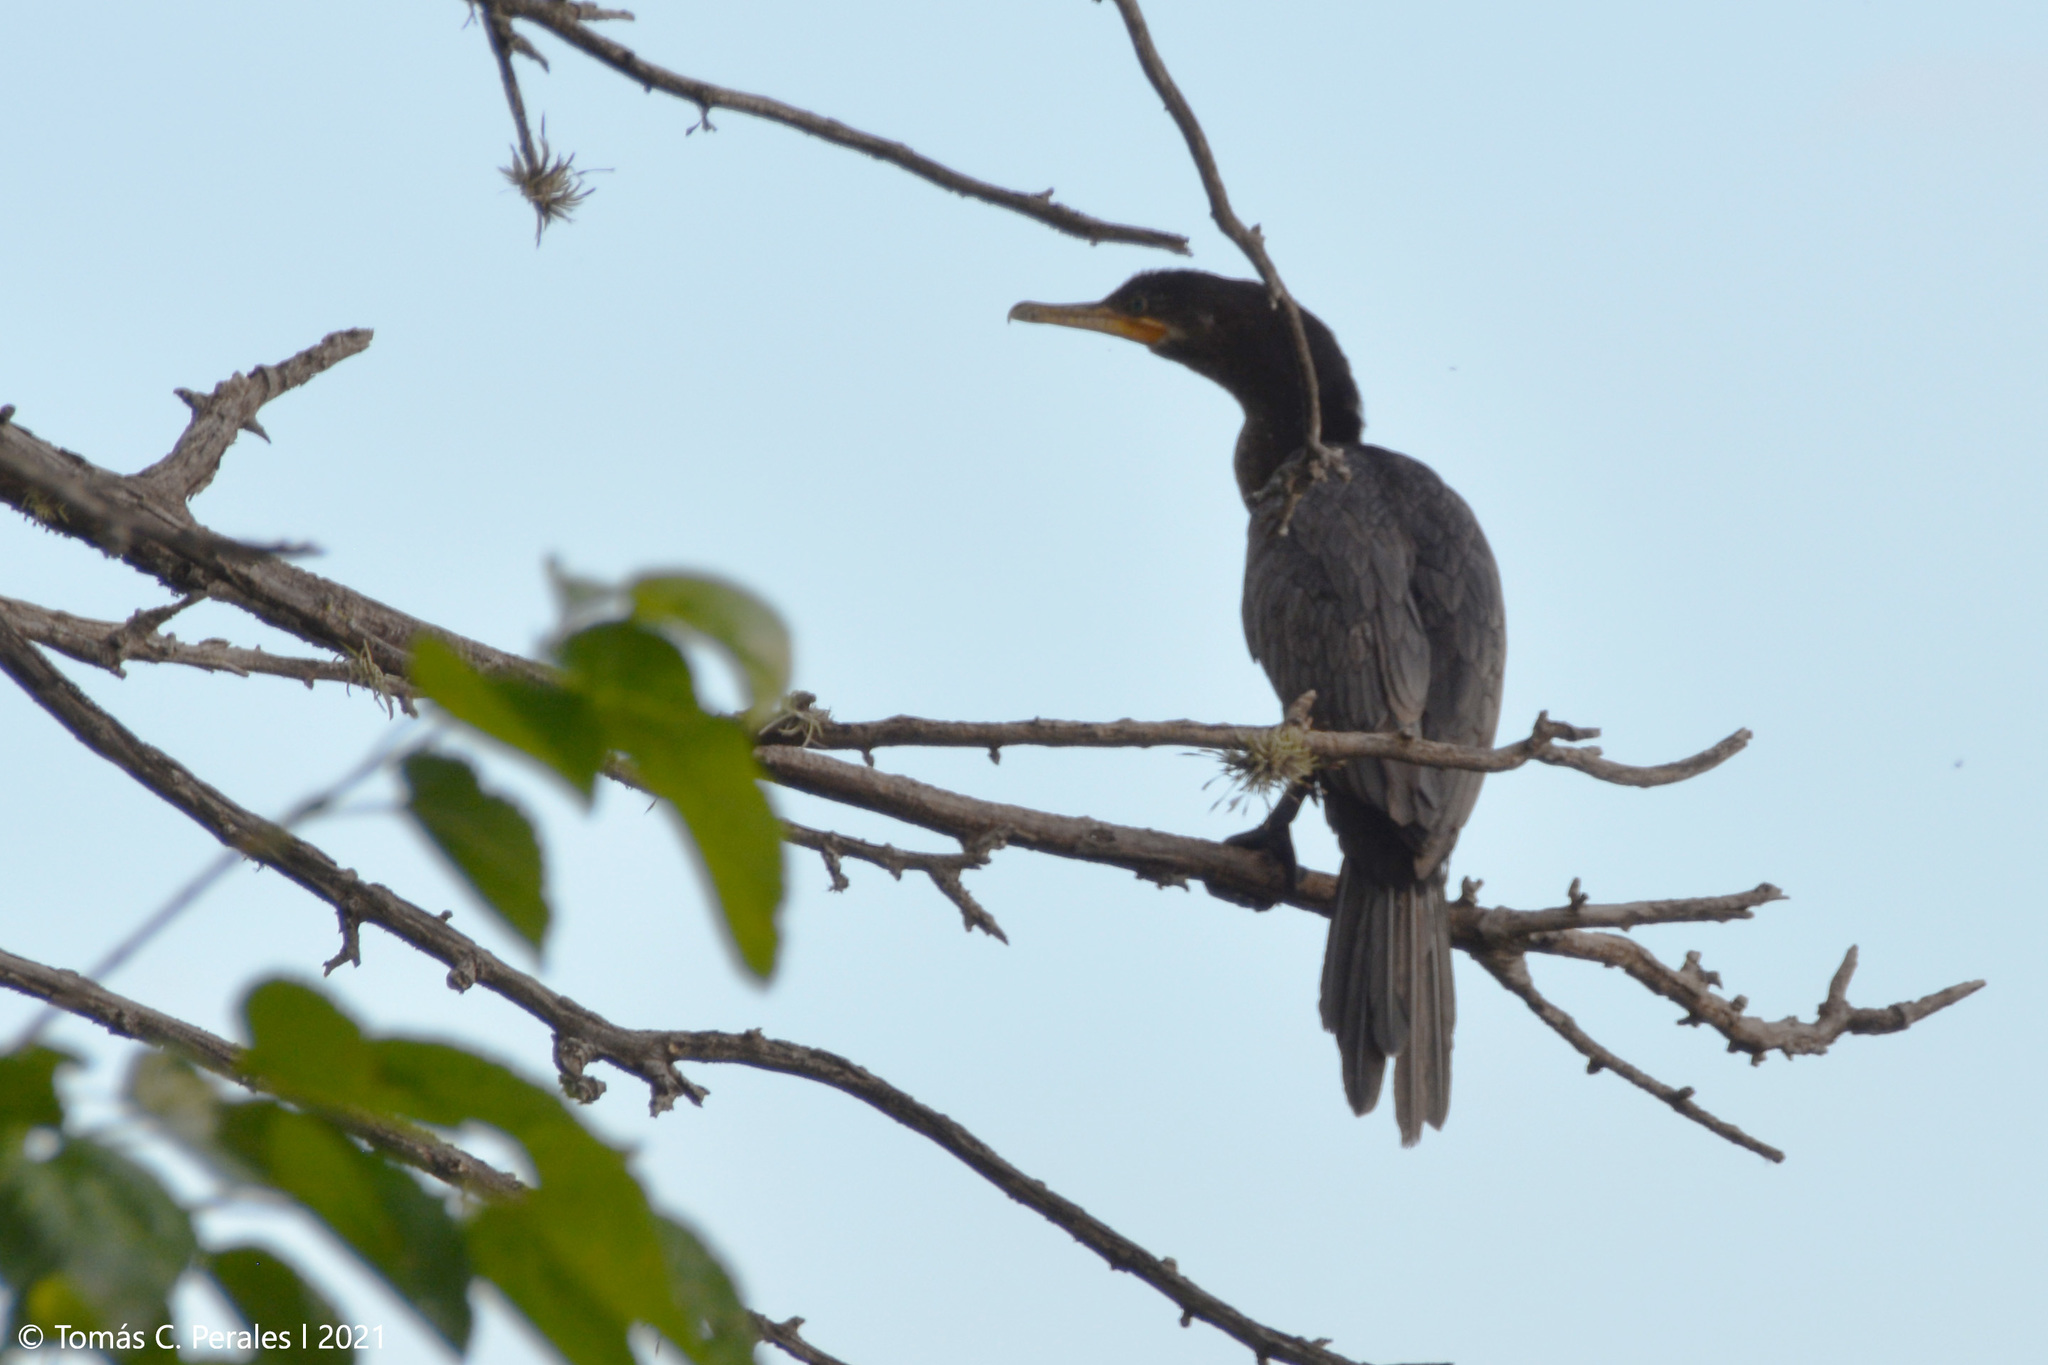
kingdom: Animalia
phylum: Chordata
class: Aves
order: Suliformes
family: Phalacrocoracidae
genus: Phalacrocorax
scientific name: Phalacrocorax brasilianus
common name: Neotropic cormorant
